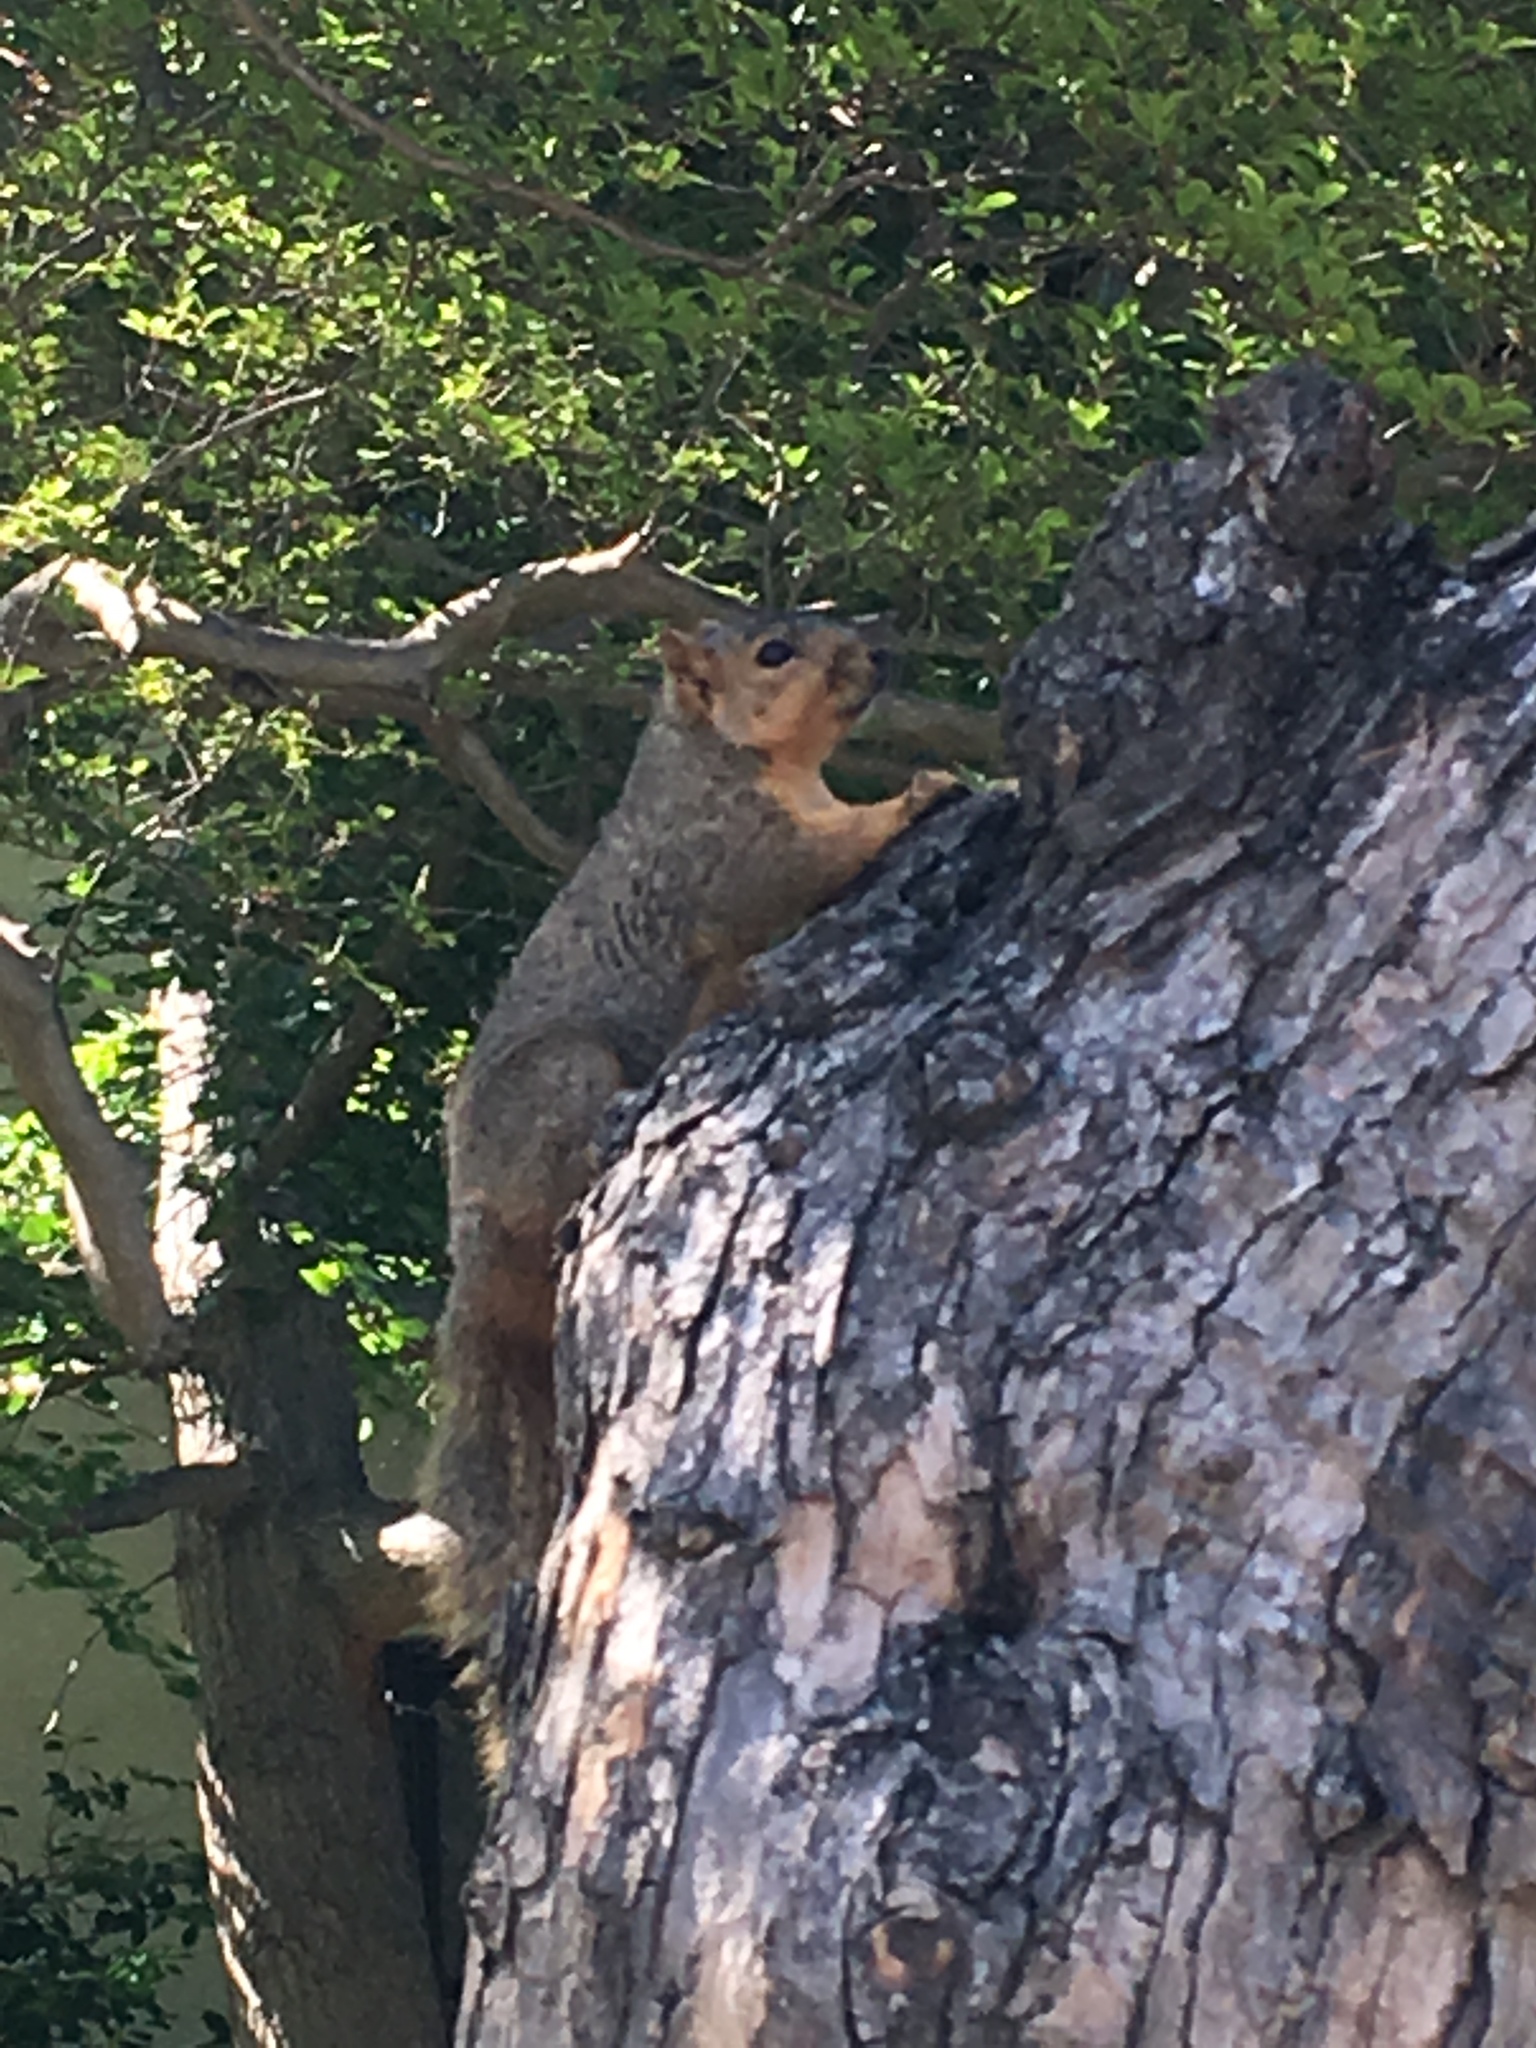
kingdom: Animalia
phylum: Chordata
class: Mammalia
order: Rodentia
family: Sciuridae
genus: Sciurus
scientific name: Sciurus niger
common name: Fox squirrel
